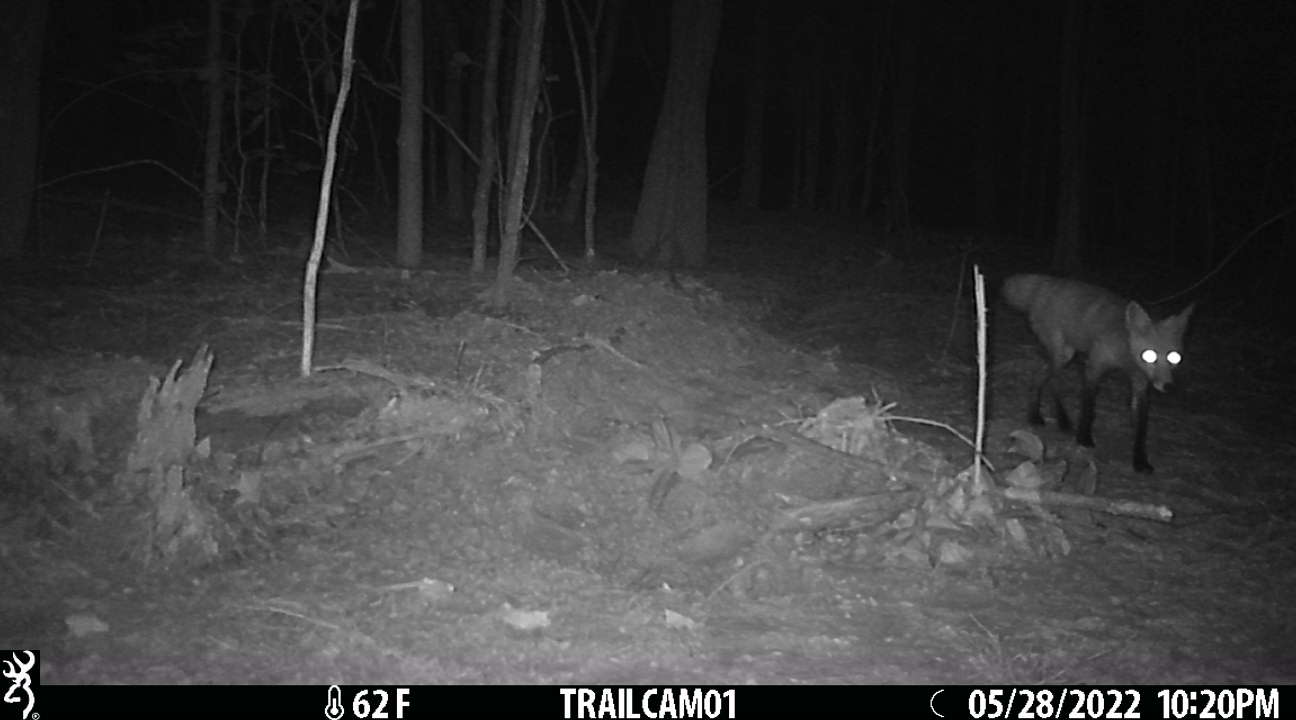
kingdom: Animalia
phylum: Chordata
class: Mammalia
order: Carnivora
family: Canidae
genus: Vulpes
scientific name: Vulpes vulpes
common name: Red fox
